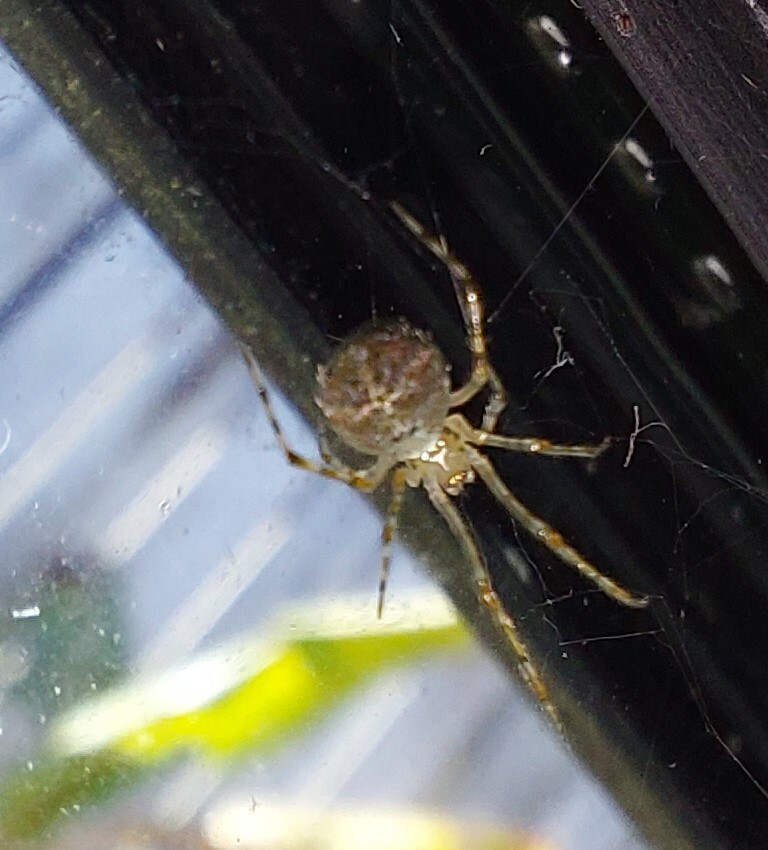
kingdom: Animalia
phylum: Arthropoda
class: Arachnida
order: Araneae
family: Theridiidae
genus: Cryptachaea
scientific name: Cryptachaea gigantipes
